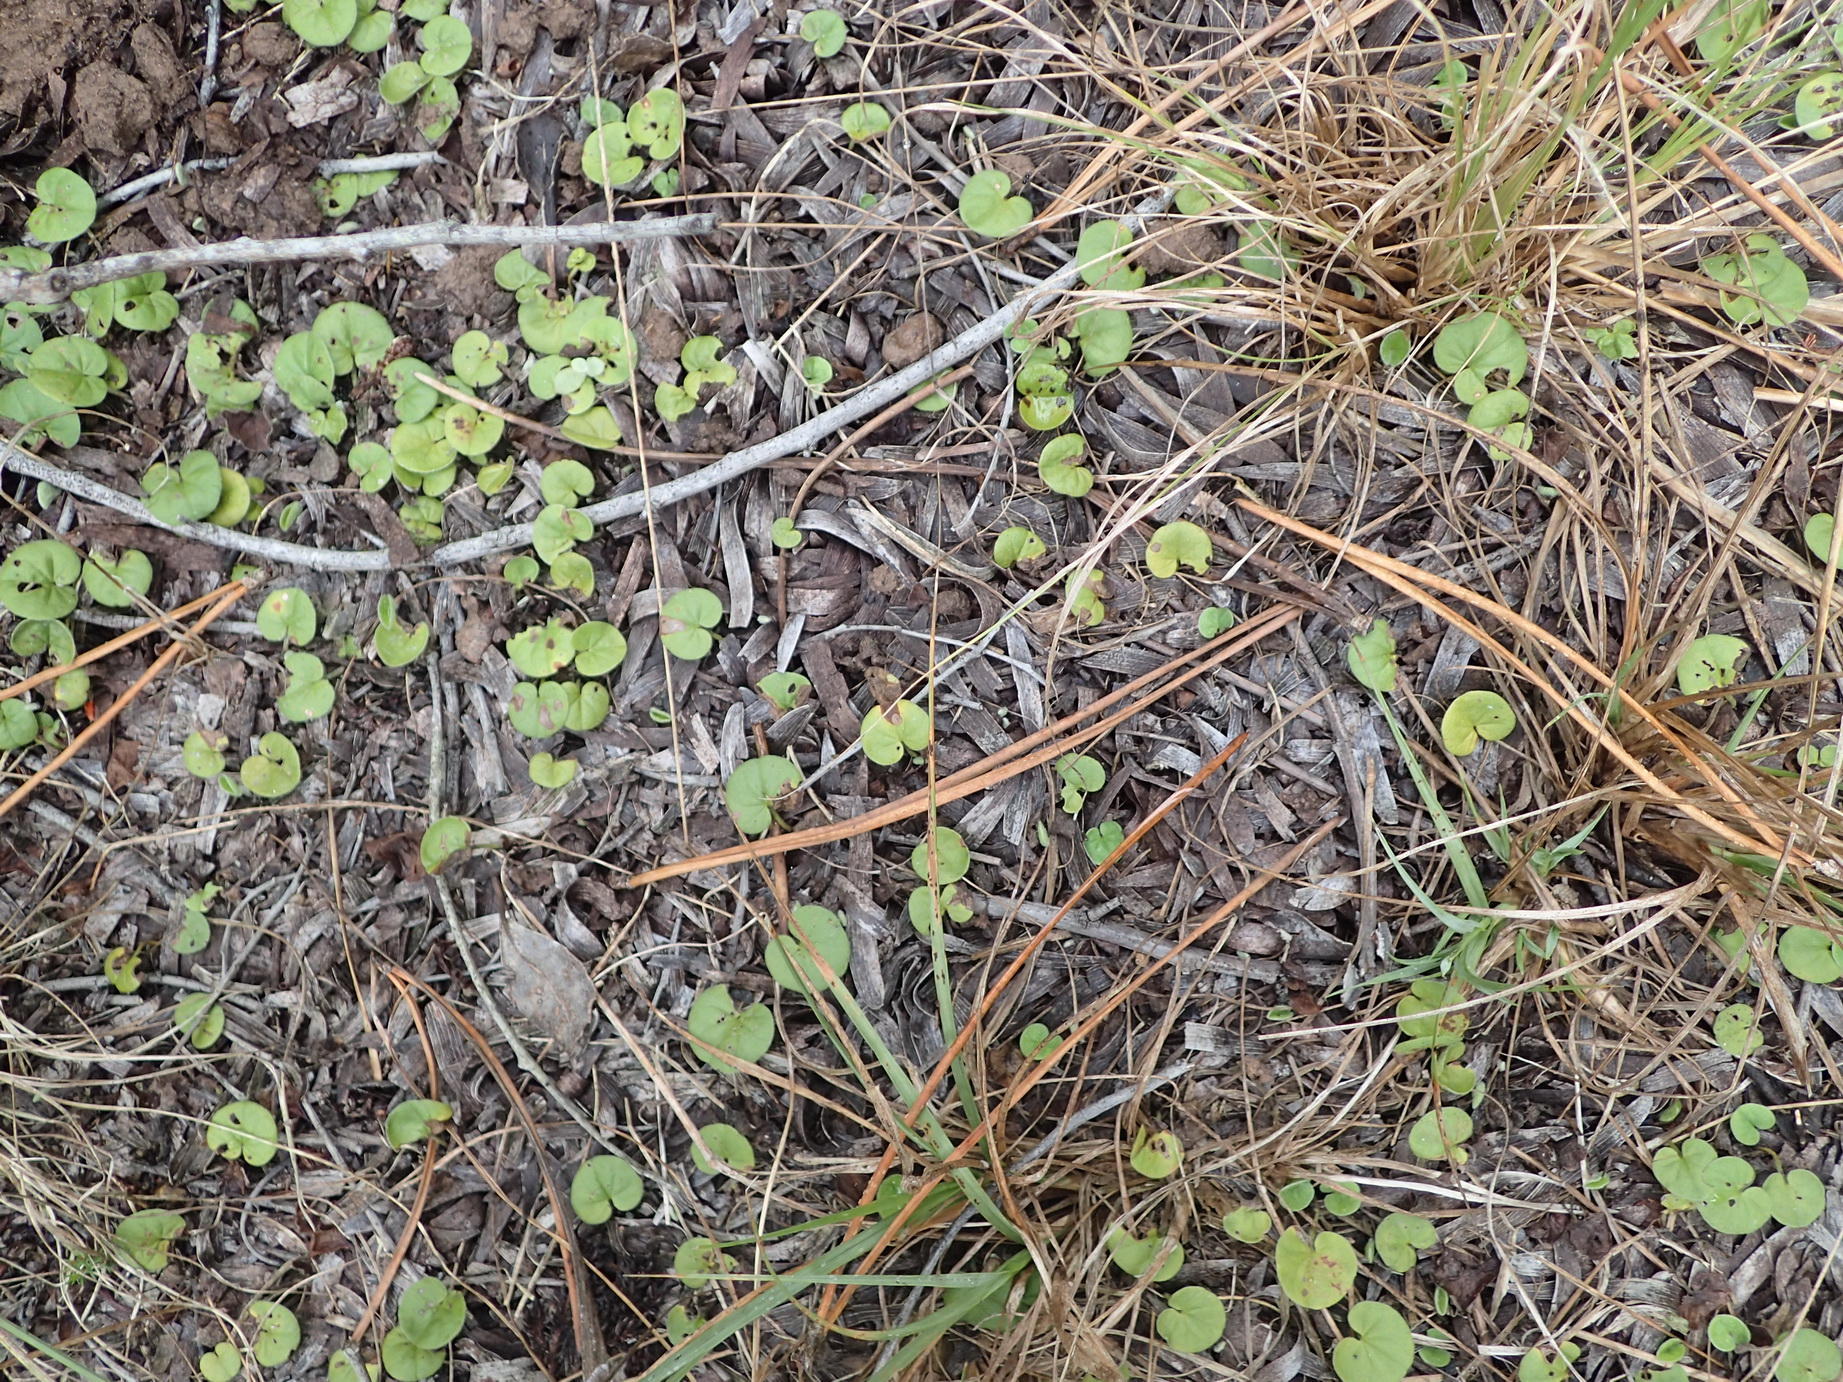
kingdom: Plantae
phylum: Tracheophyta
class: Magnoliopsida
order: Solanales
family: Convolvulaceae
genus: Dichondra
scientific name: Dichondra micrantha
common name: Kidneyweed
